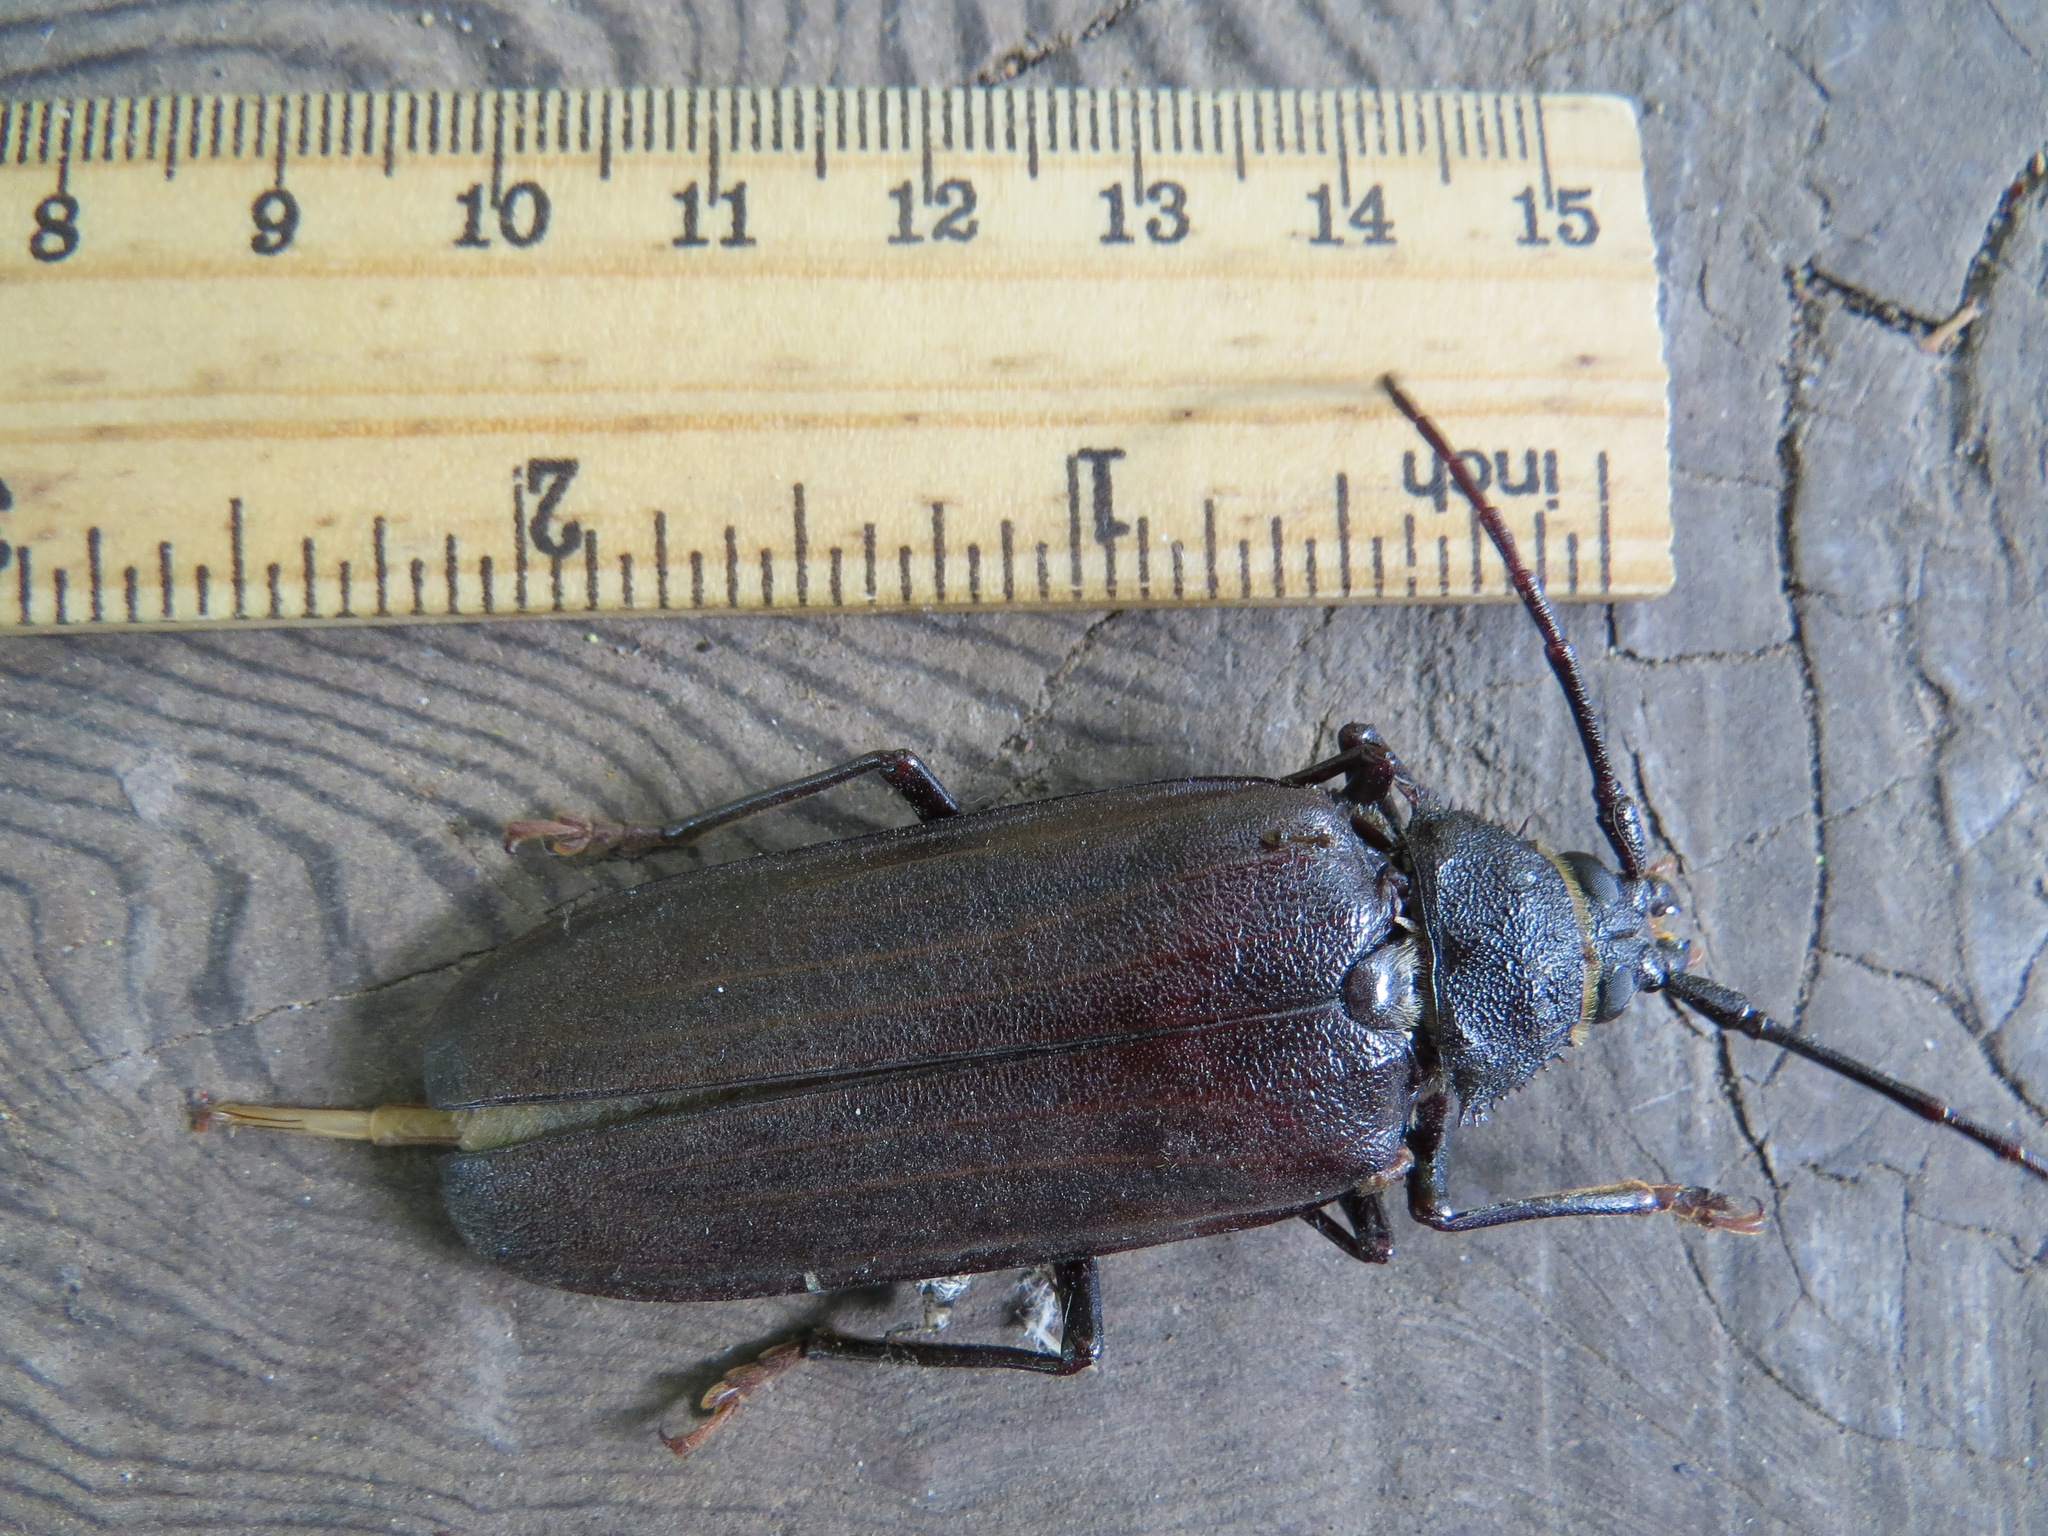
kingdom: Animalia
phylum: Arthropoda
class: Insecta
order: Coleoptera
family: Cerambycidae
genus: Trichocnemis
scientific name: Trichocnemis spiculatus
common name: Long-horned beetle
